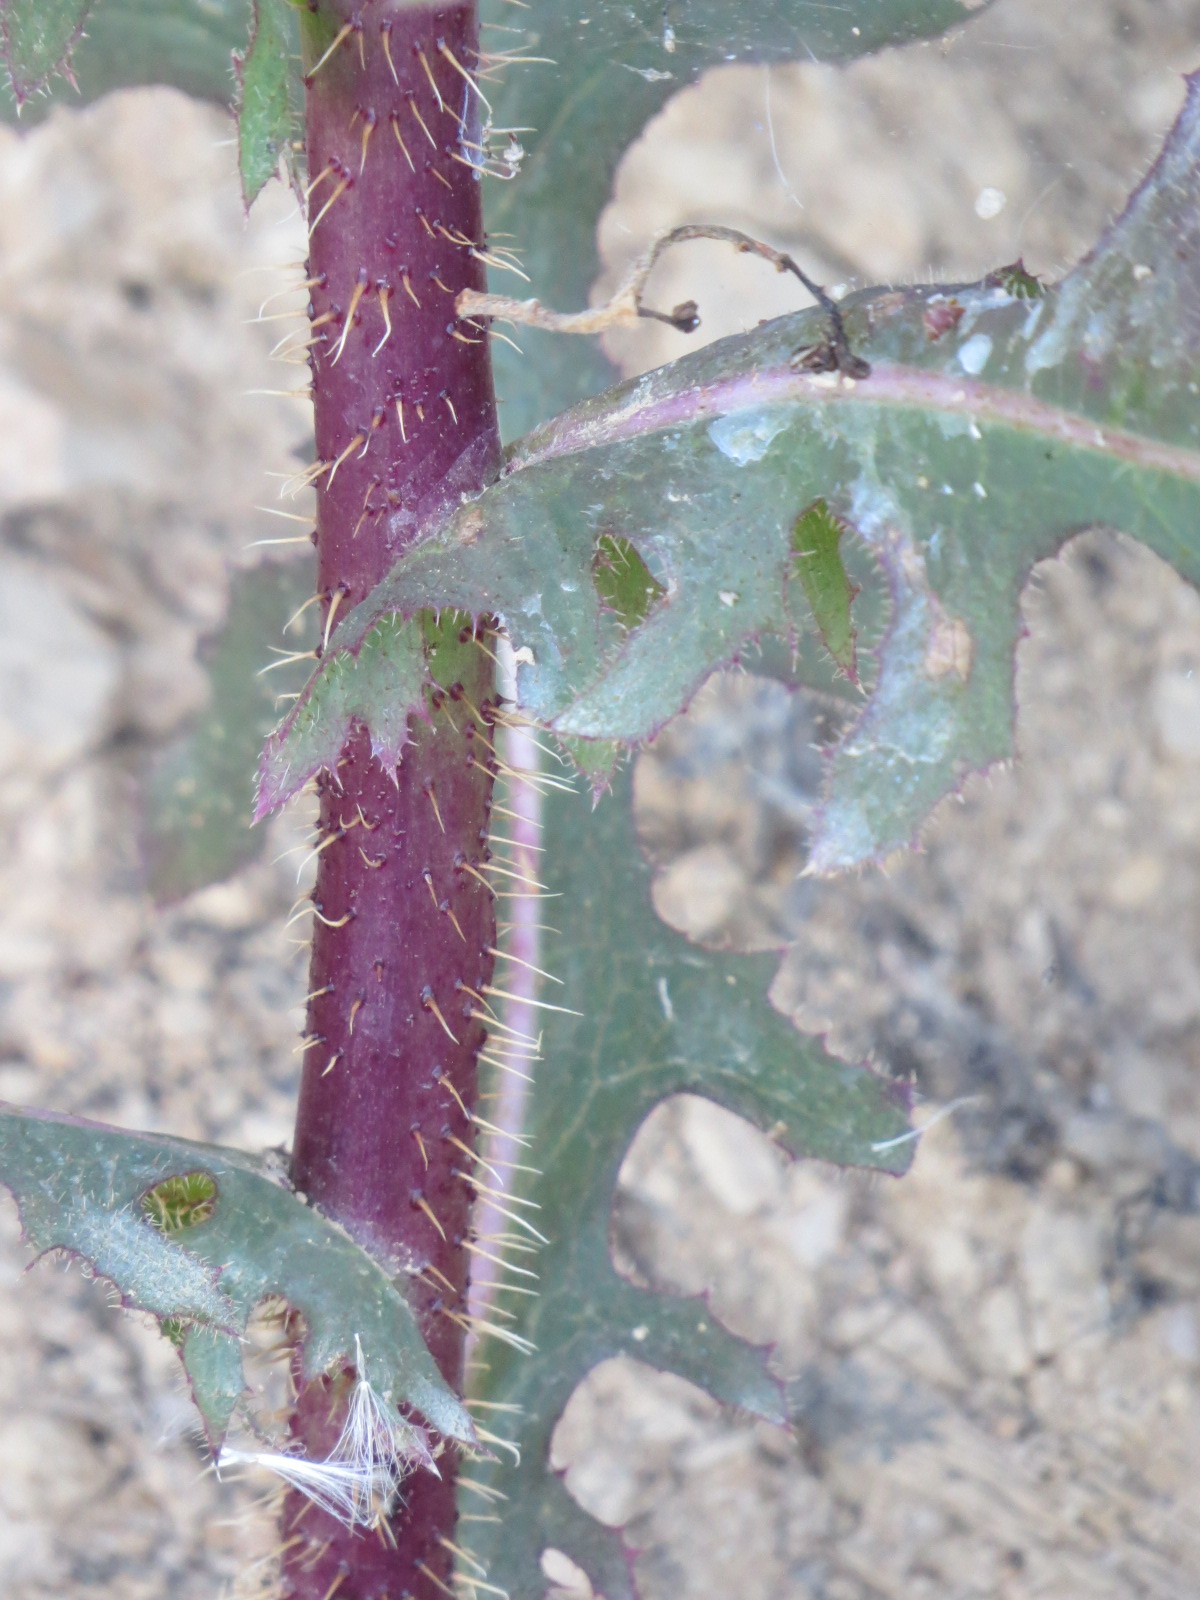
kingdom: Plantae
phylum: Tracheophyta
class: Magnoliopsida
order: Asterales
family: Asteraceae
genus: Lactuca
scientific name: Lactuca serriola
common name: Prickly lettuce
